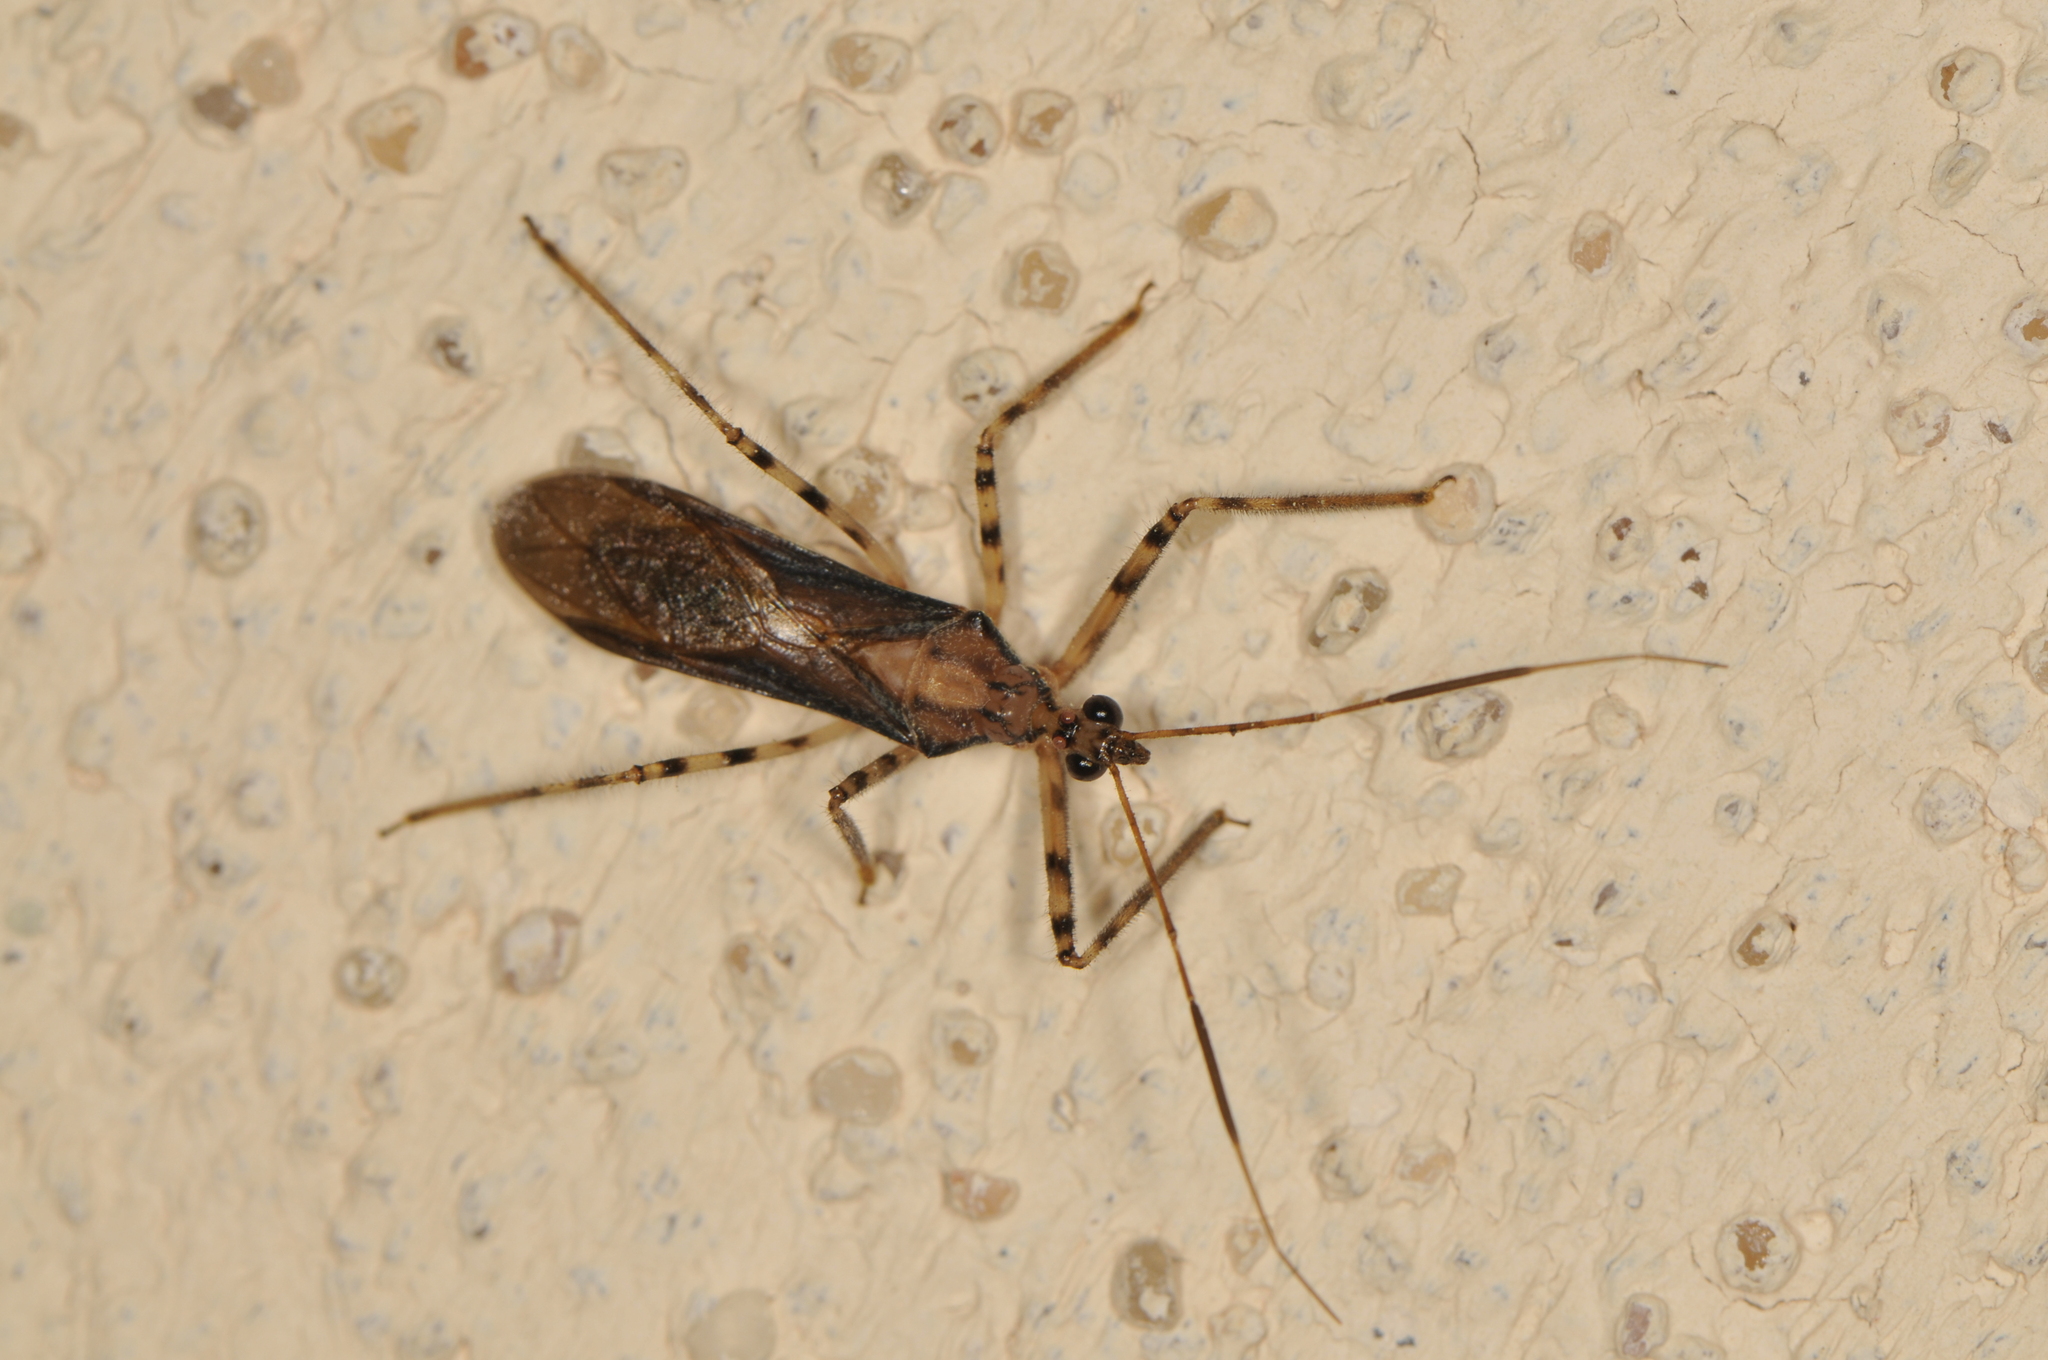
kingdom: Animalia
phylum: Arthropoda
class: Insecta
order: Hemiptera
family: Reduviidae
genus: Castolus
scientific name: Castolus ferox
